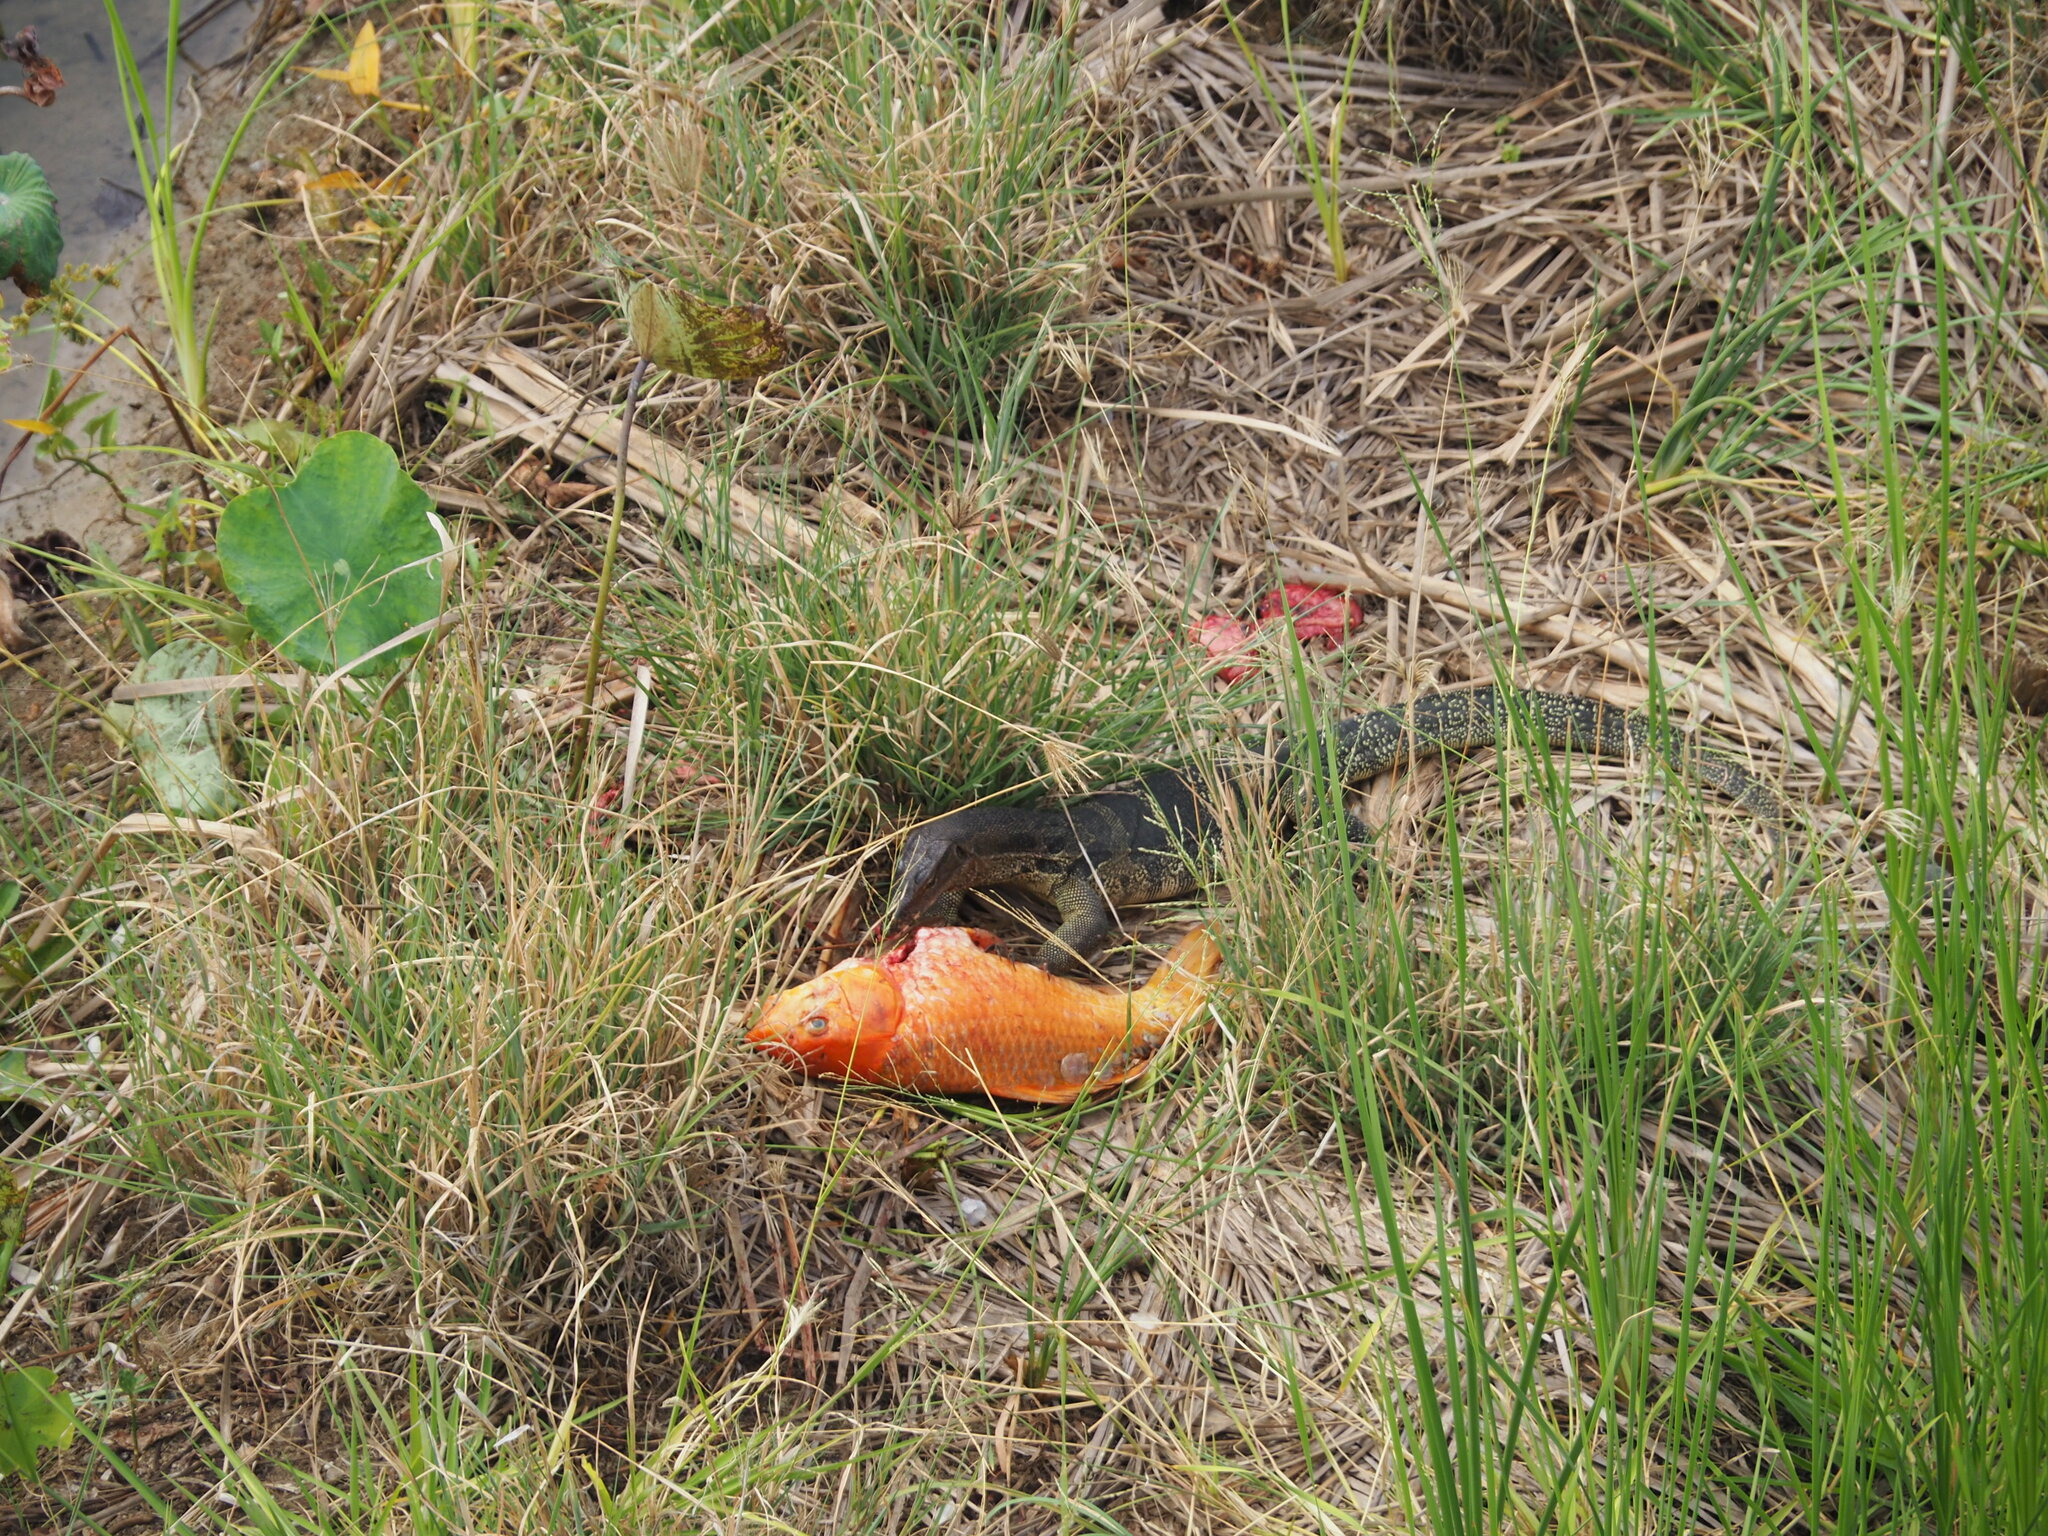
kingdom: Animalia
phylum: Chordata
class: Squamata
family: Varanidae
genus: Varanus
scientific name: Varanus salvator
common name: Common water monitor
